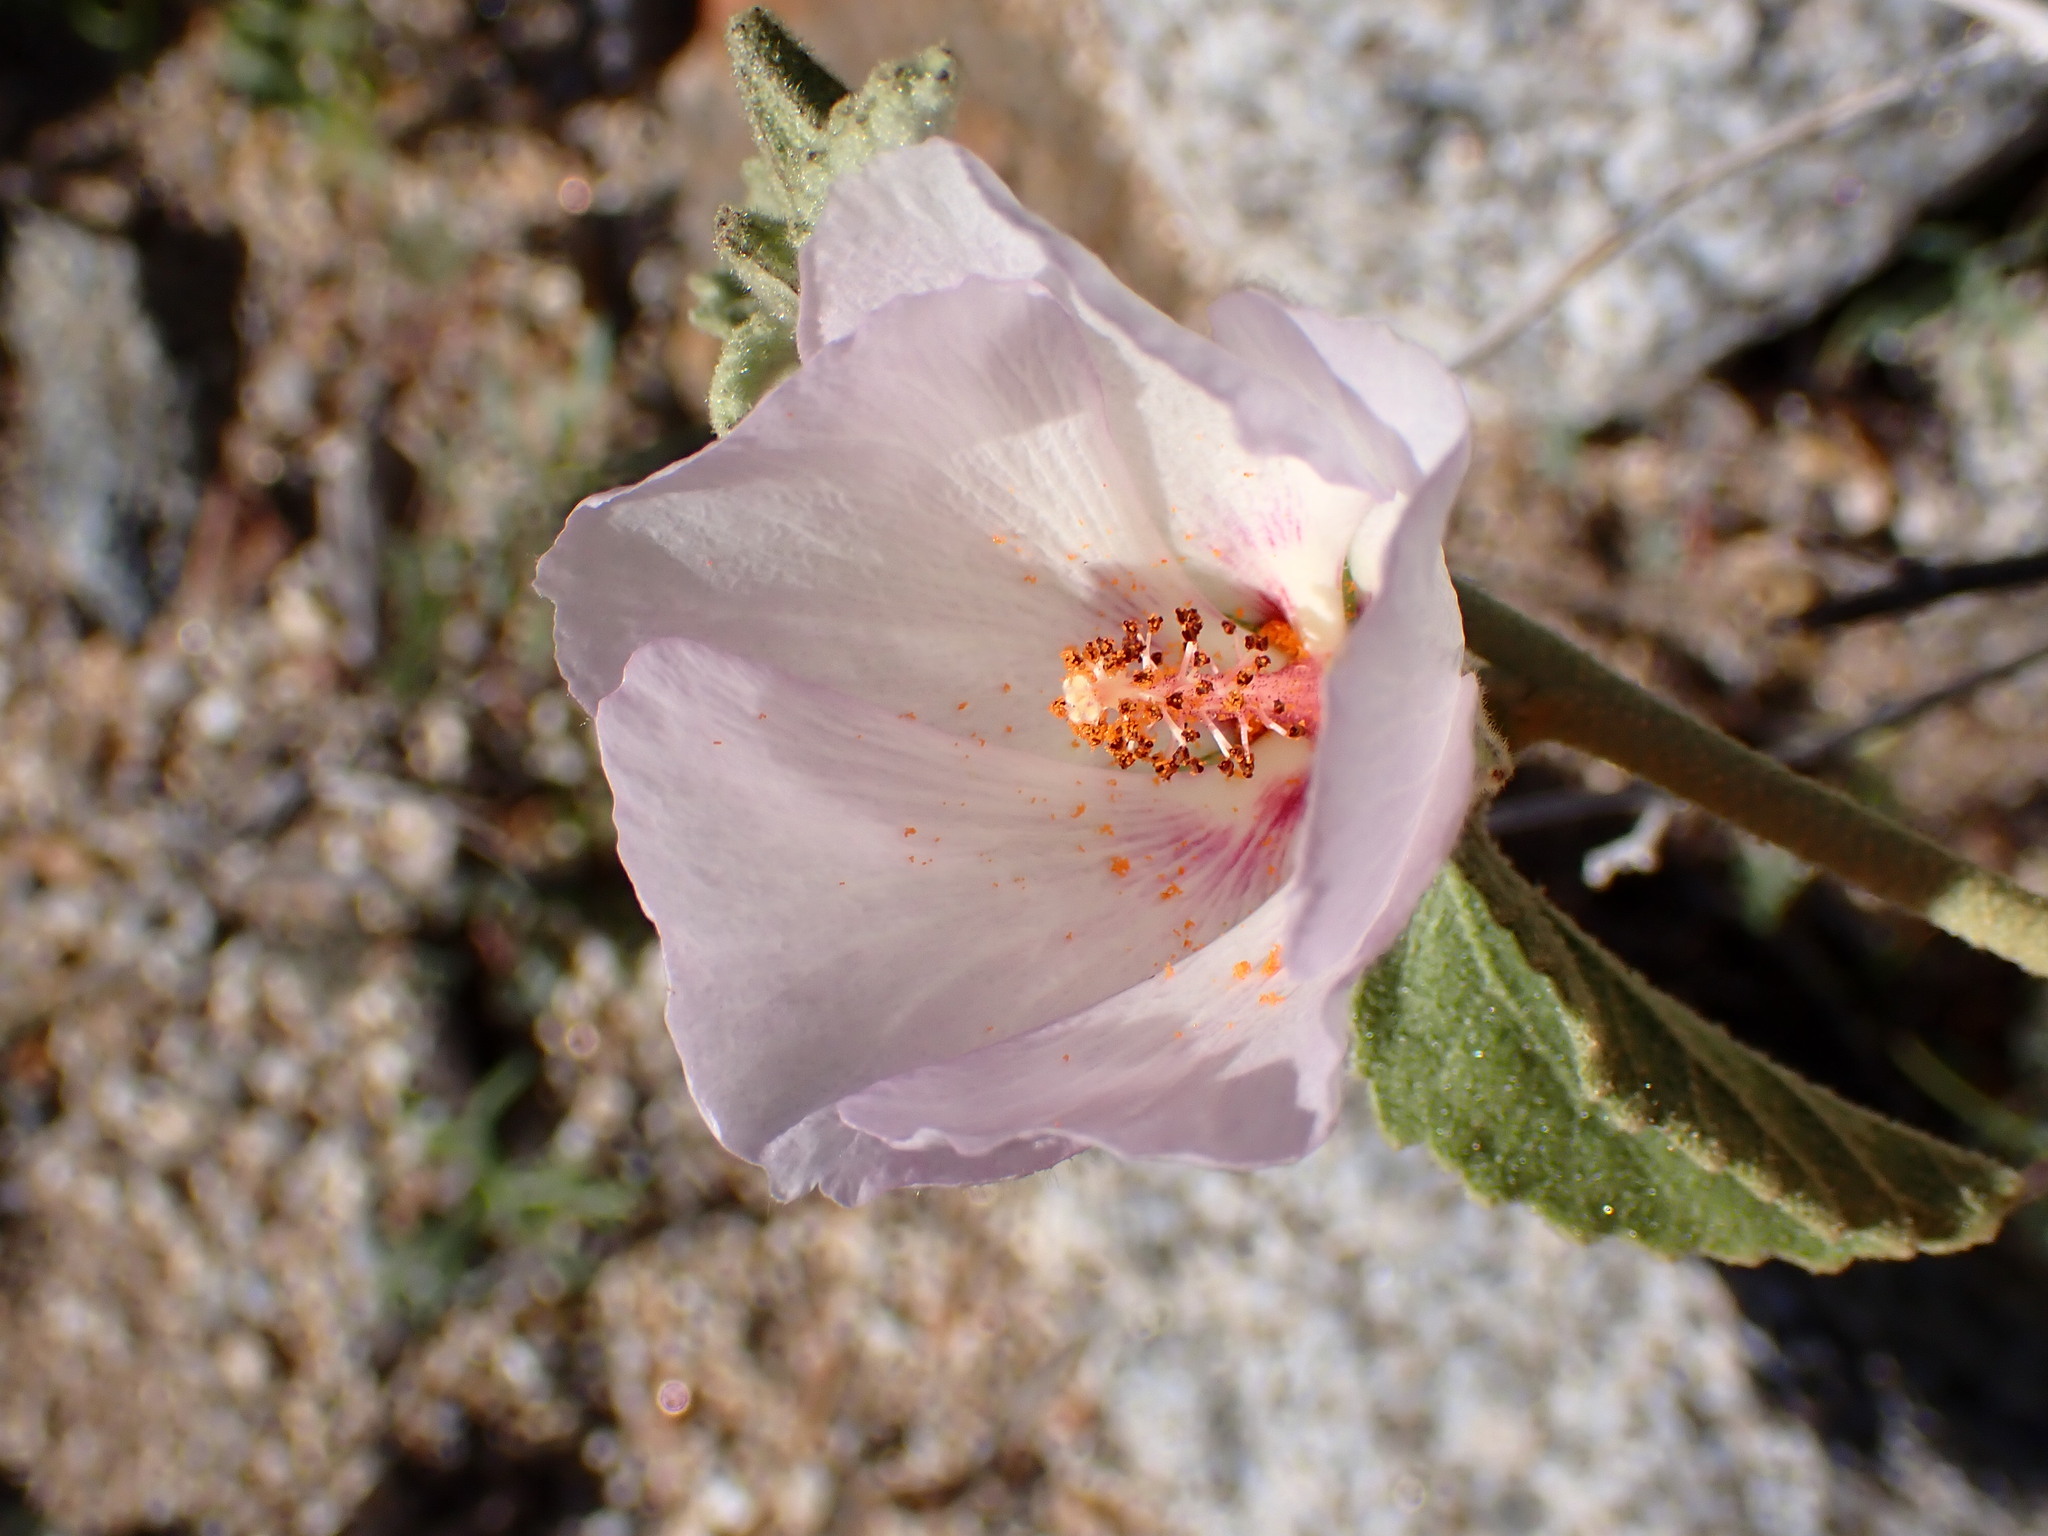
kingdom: Plantae
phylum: Tracheophyta
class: Magnoliopsida
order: Malvales
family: Malvaceae
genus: Hibiscus
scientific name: Hibiscus denudatus
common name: Paleface
